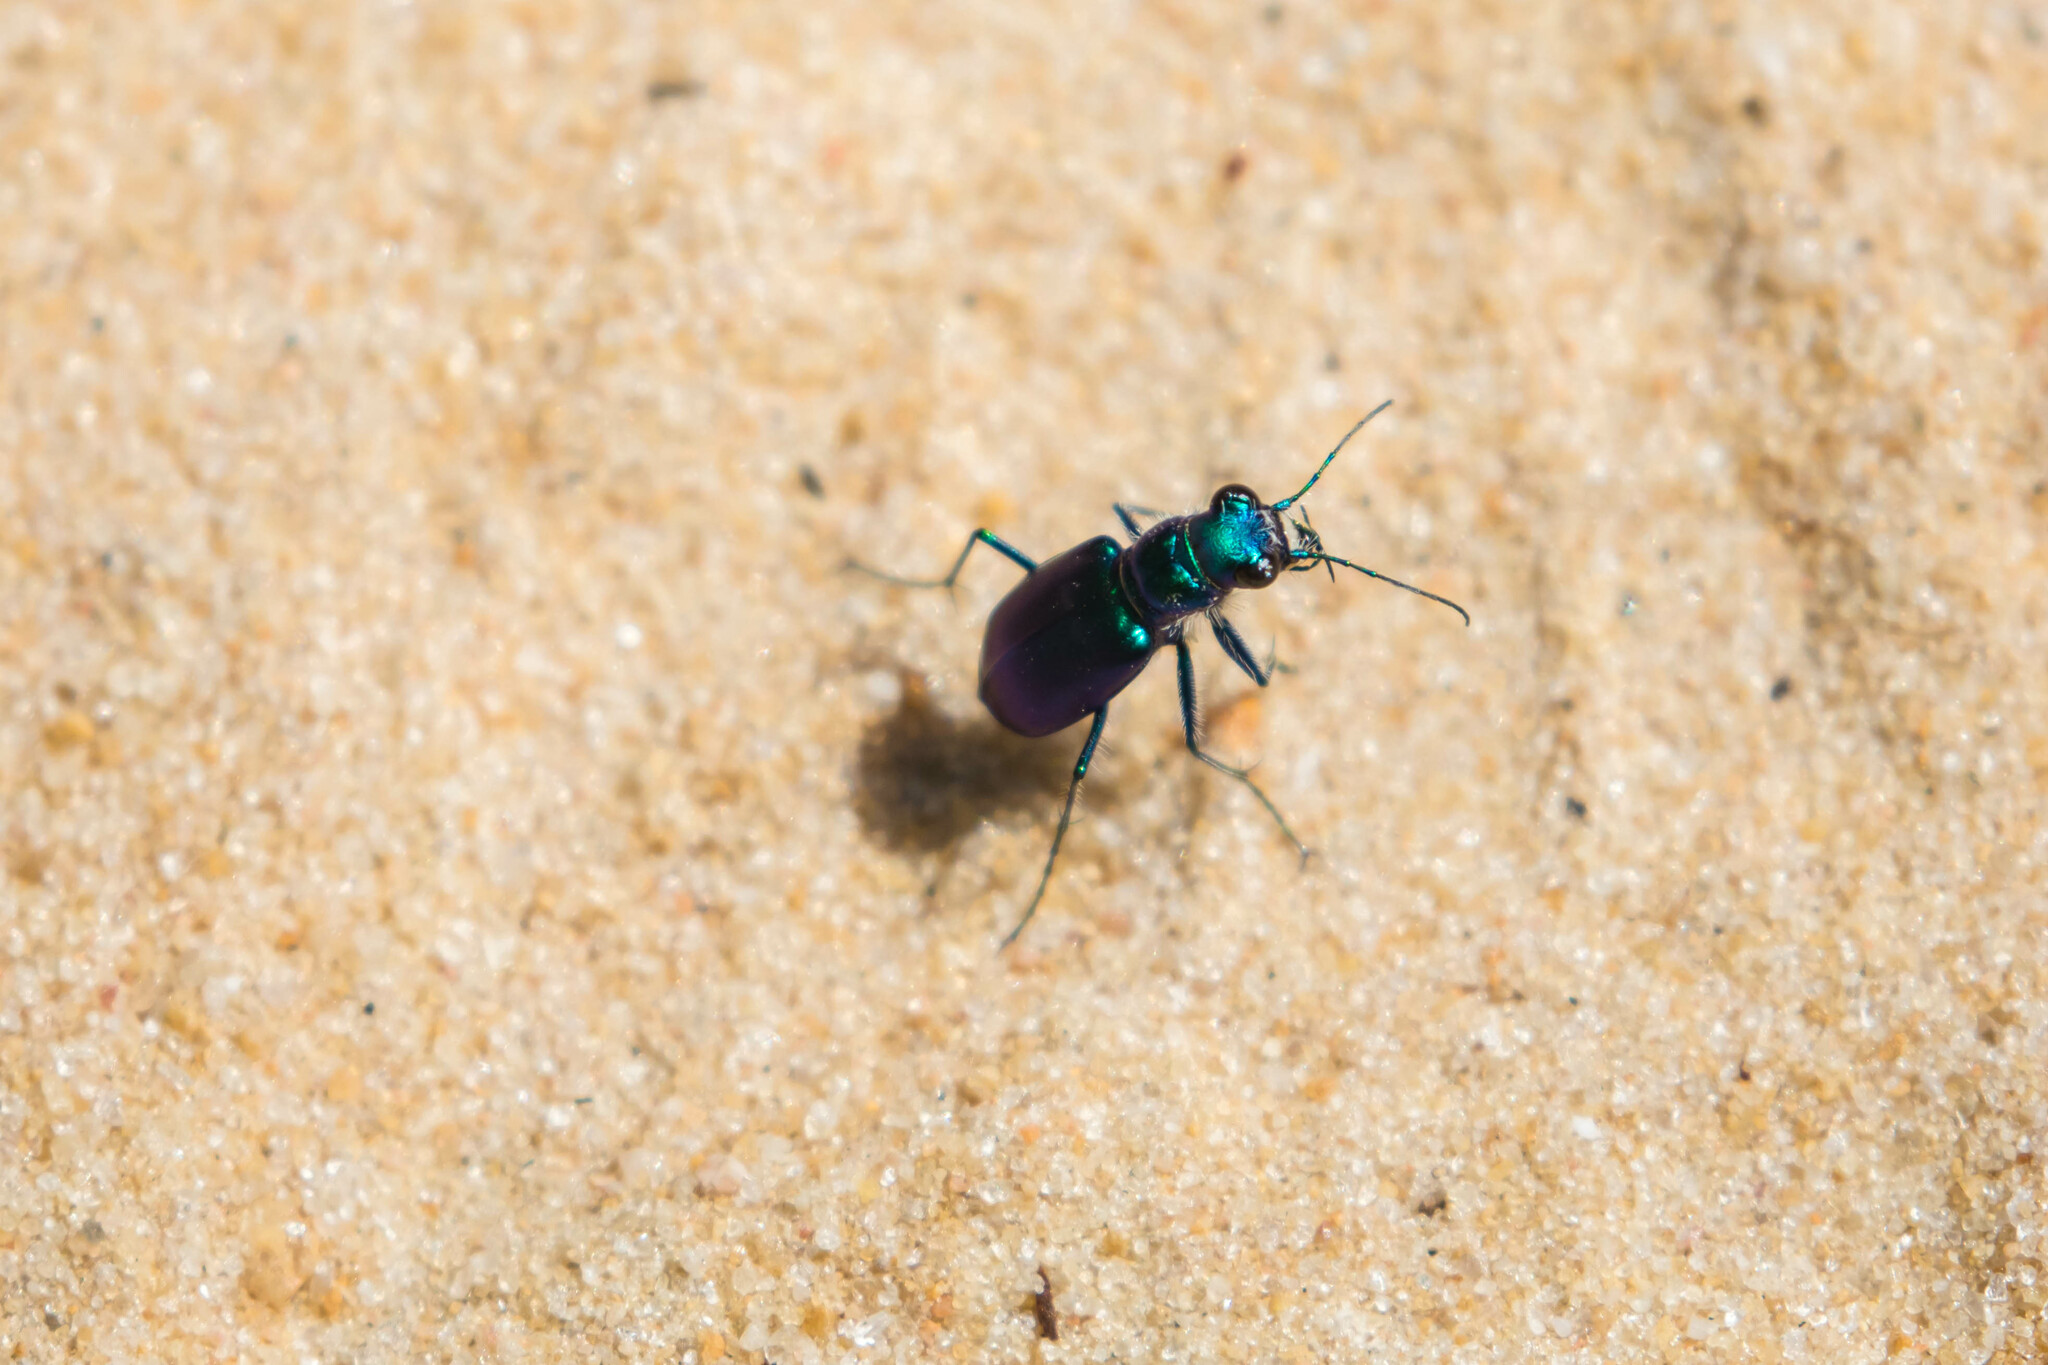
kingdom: Animalia
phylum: Arthropoda
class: Insecta
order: Coleoptera
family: Carabidae
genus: Cicindela
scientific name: Cicindela scutellaris
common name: Festive tiger beetle
